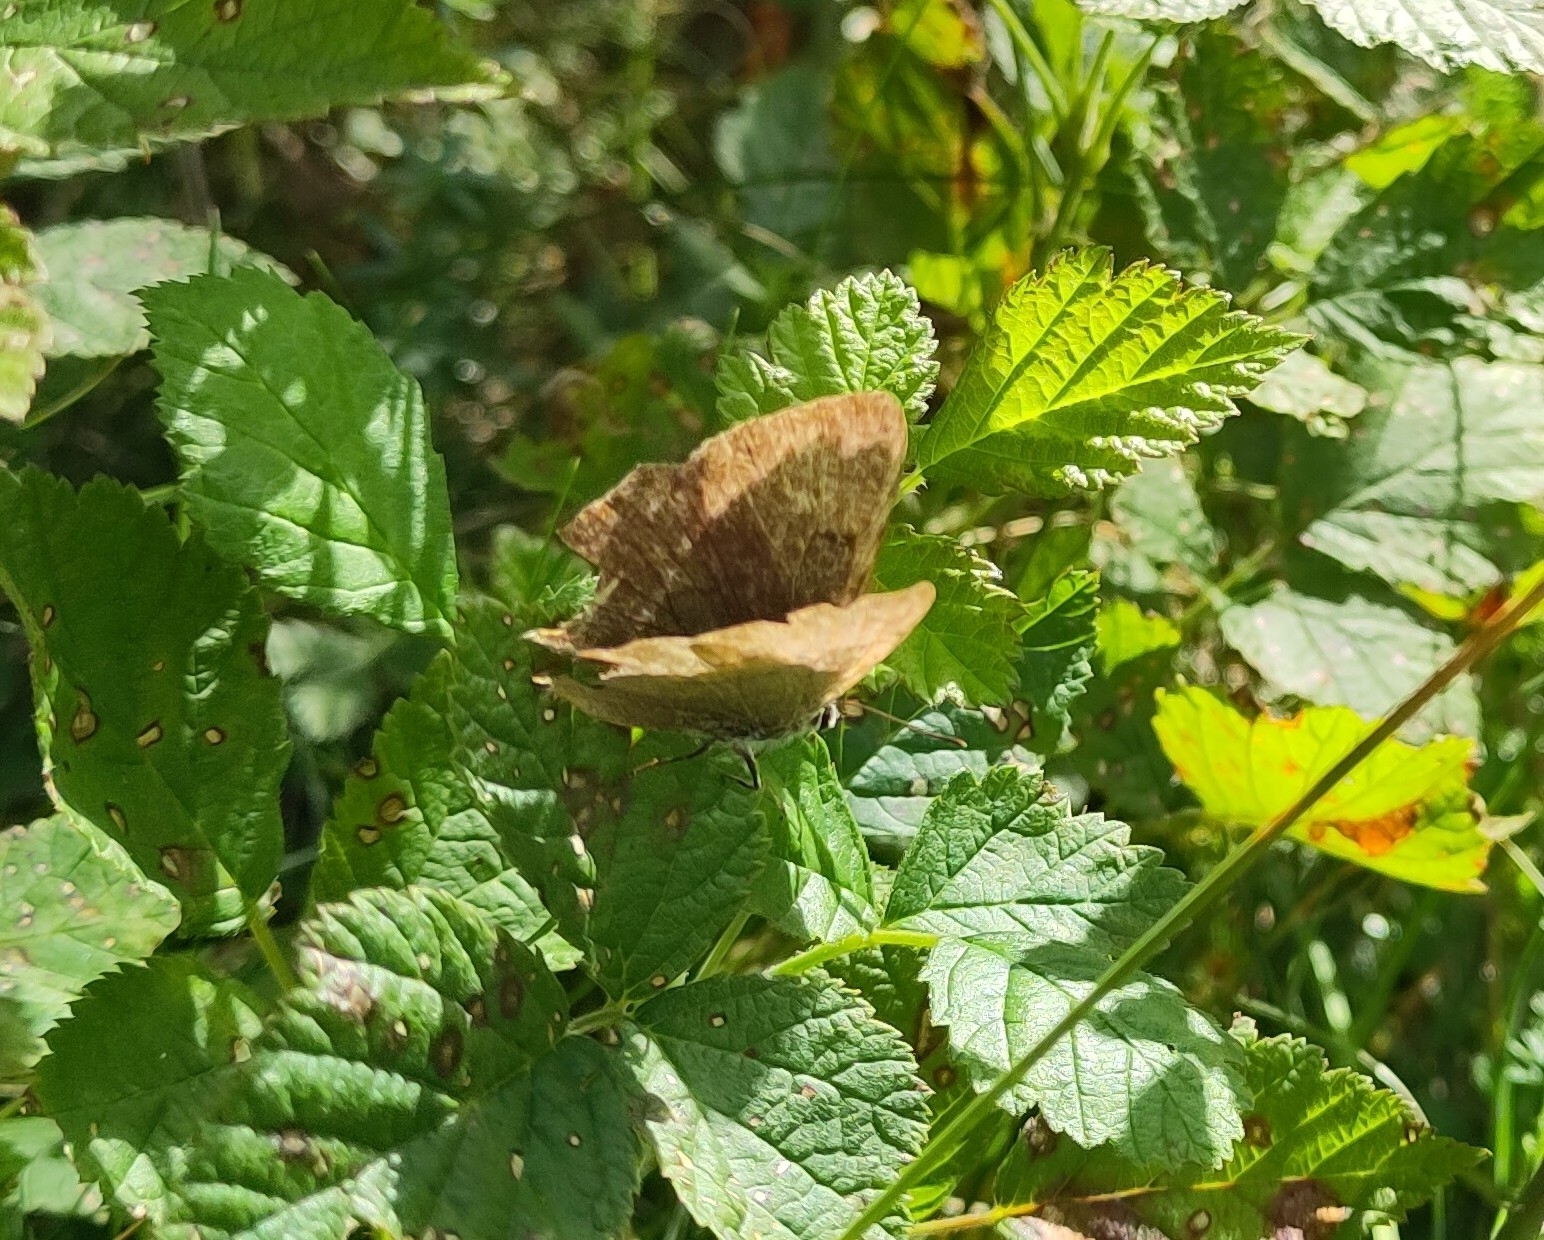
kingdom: Animalia
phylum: Arthropoda
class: Insecta
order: Lepidoptera
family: Lycaenidae
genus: Thecla
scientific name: Thecla betulae
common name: Brown hairstreak
